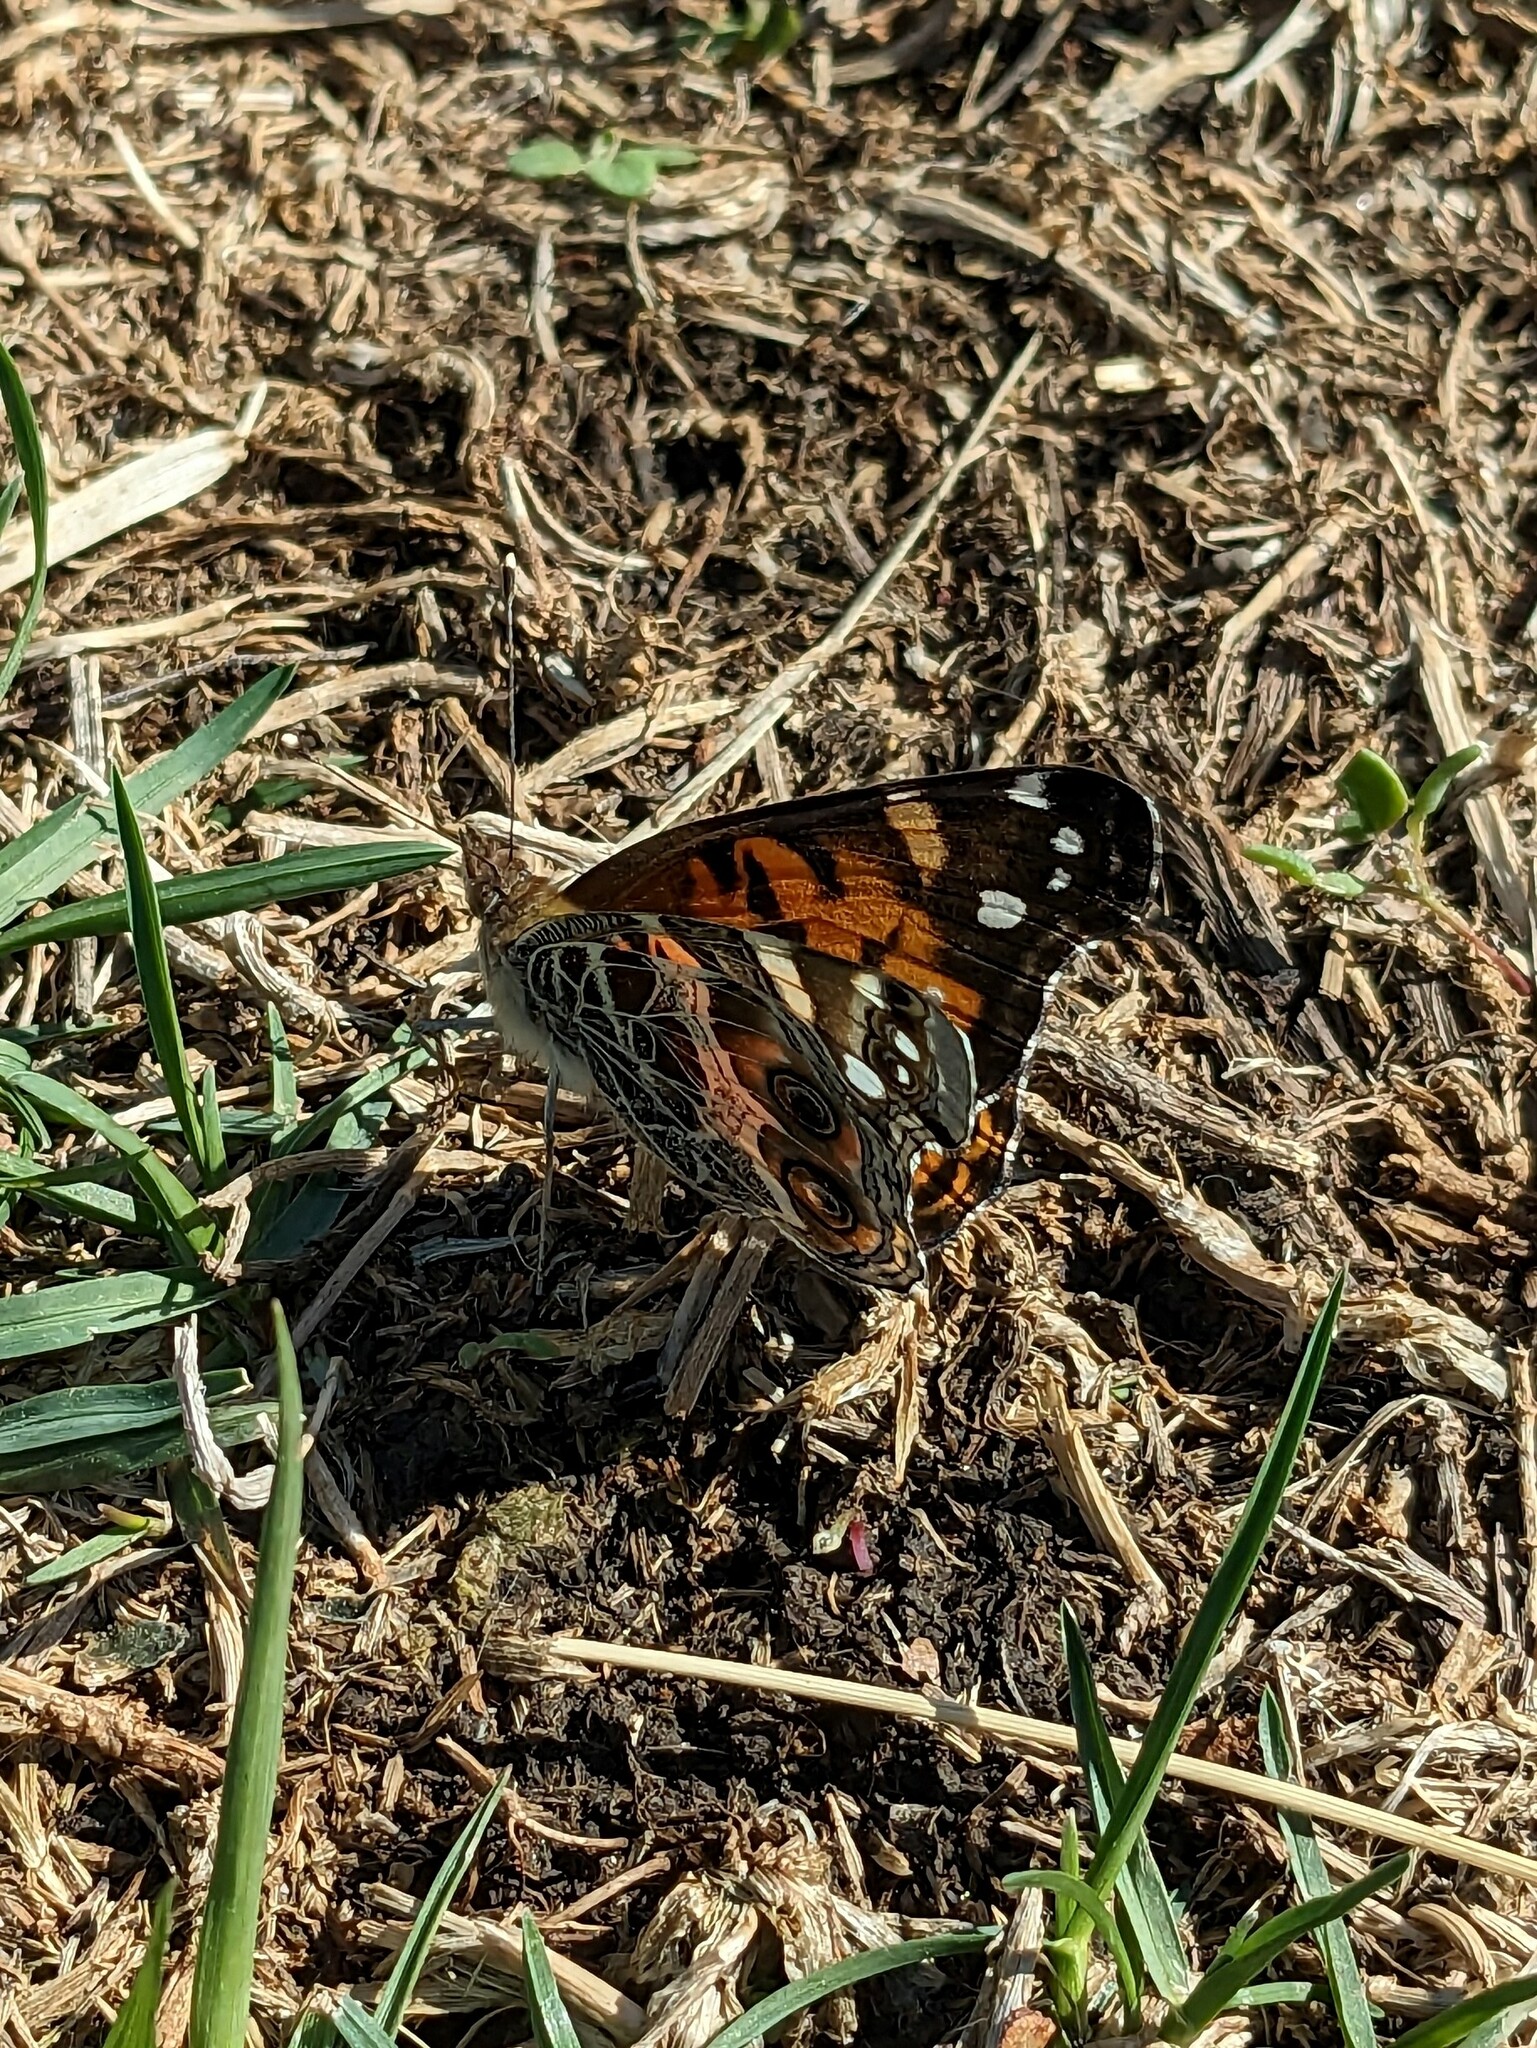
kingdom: Animalia
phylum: Arthropoda
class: Insecta
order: Lepidoptera
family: Nymphalidae
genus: Vanessa
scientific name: Vanessa virginiensis
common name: American lady
